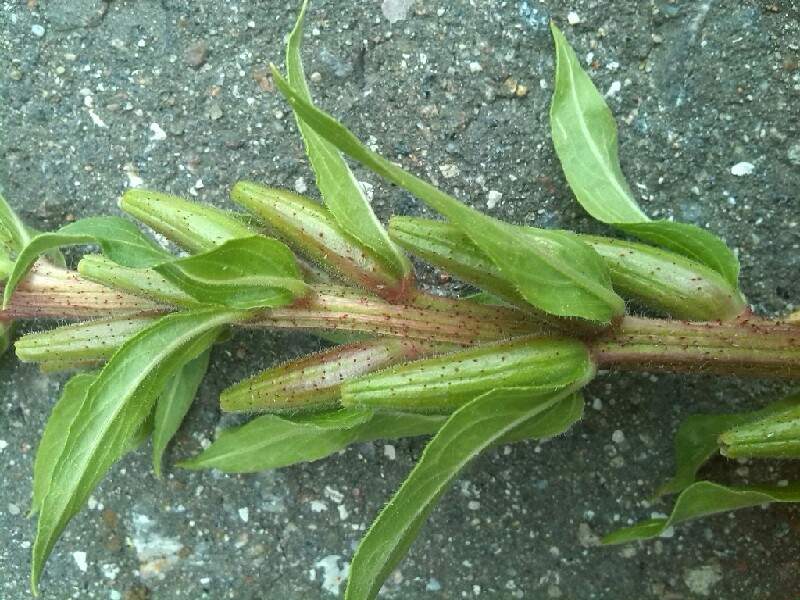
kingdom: Plantae
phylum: Tracheophyta
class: Magnoliopsida
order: Myrtales
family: Onagraceae
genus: Oenothera
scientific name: Oenothera rubricaulis
